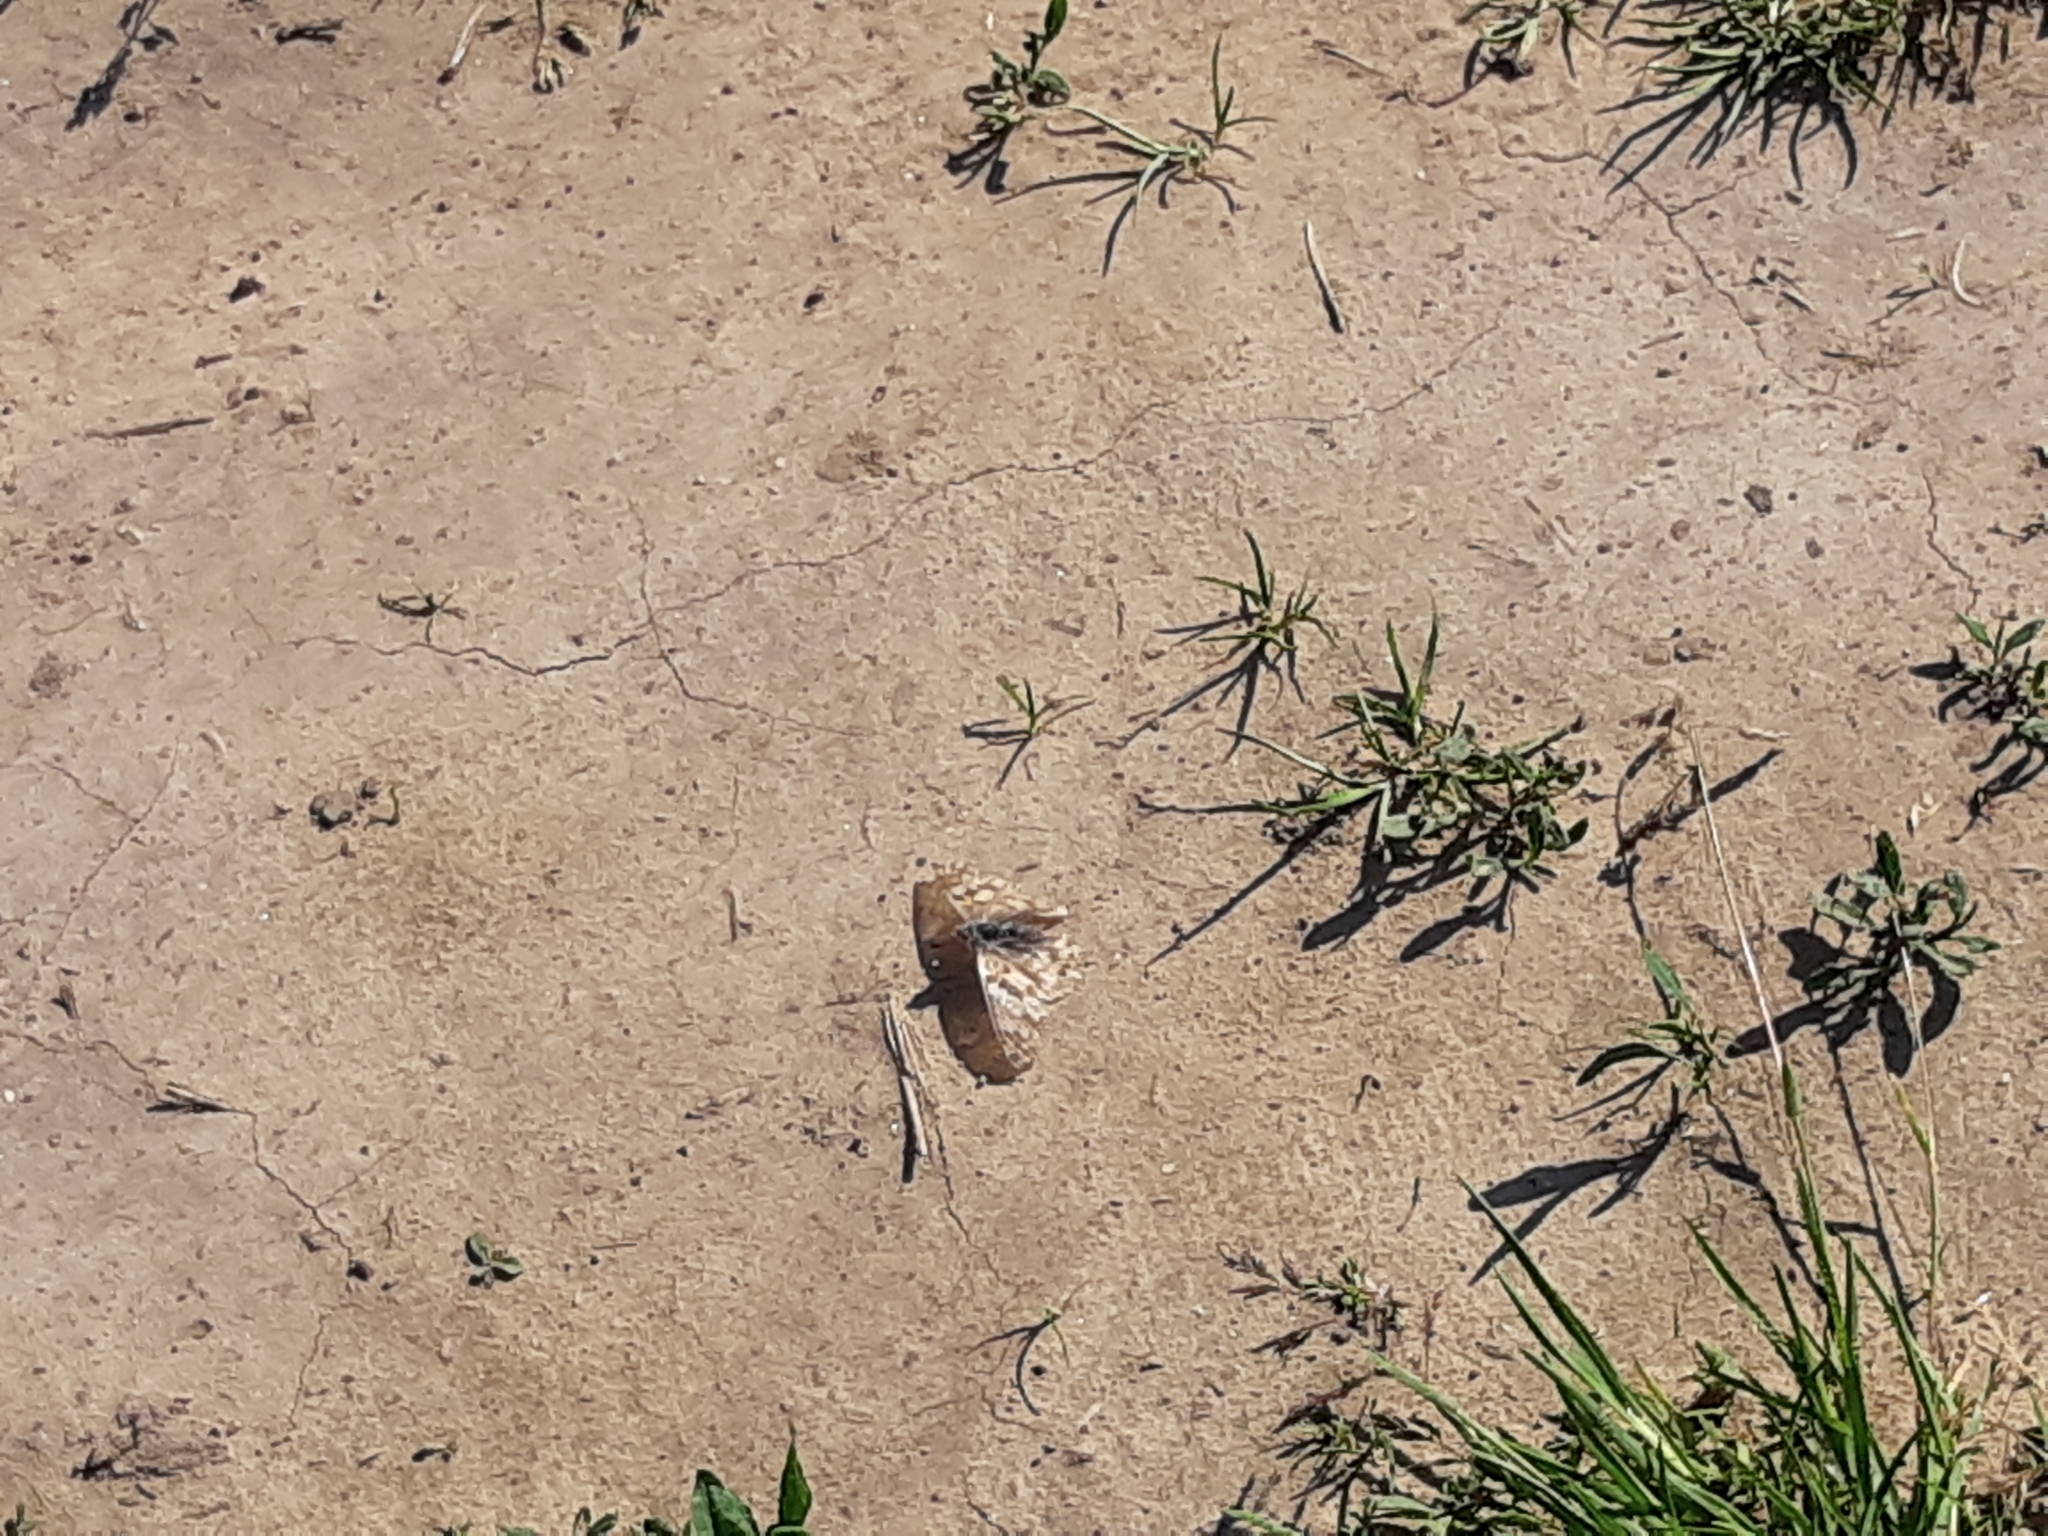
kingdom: Animalia
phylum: Arthropoda
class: Insecta
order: Lepidoptera
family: Nymphalidae
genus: Vanessa
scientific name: Vanessa cardui
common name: Painted lady
